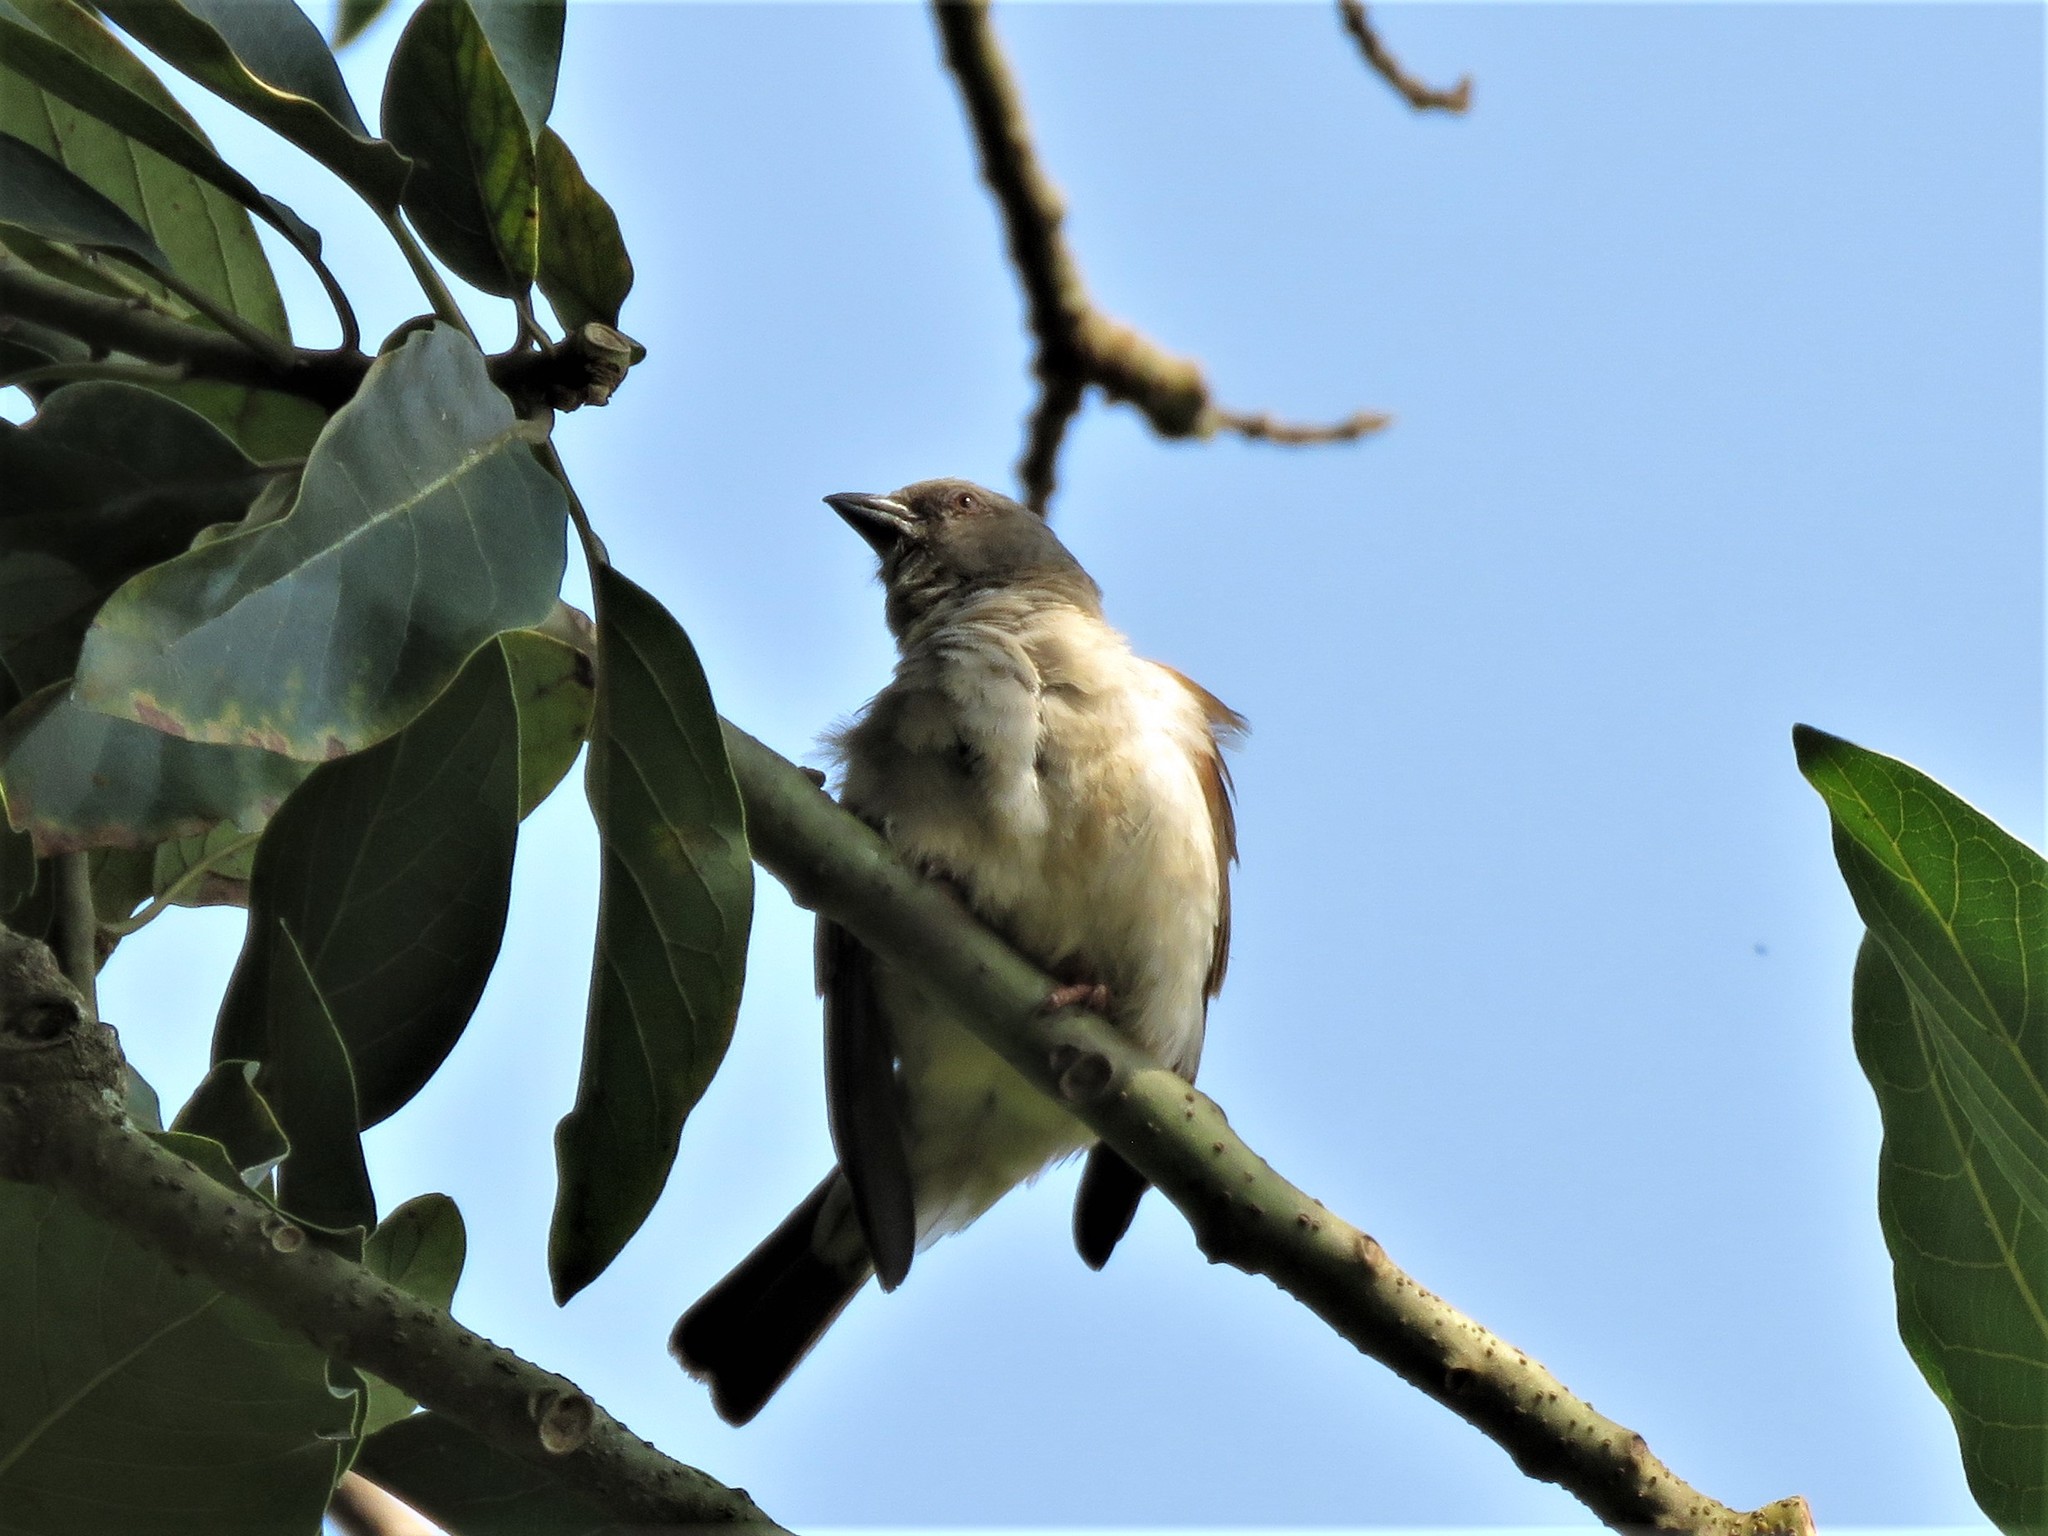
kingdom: Animalia
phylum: Chordata
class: Aves
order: Passeriformes
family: Passeridae
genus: Passer
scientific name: Passer griseus
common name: Northern grey-headed sparrow
